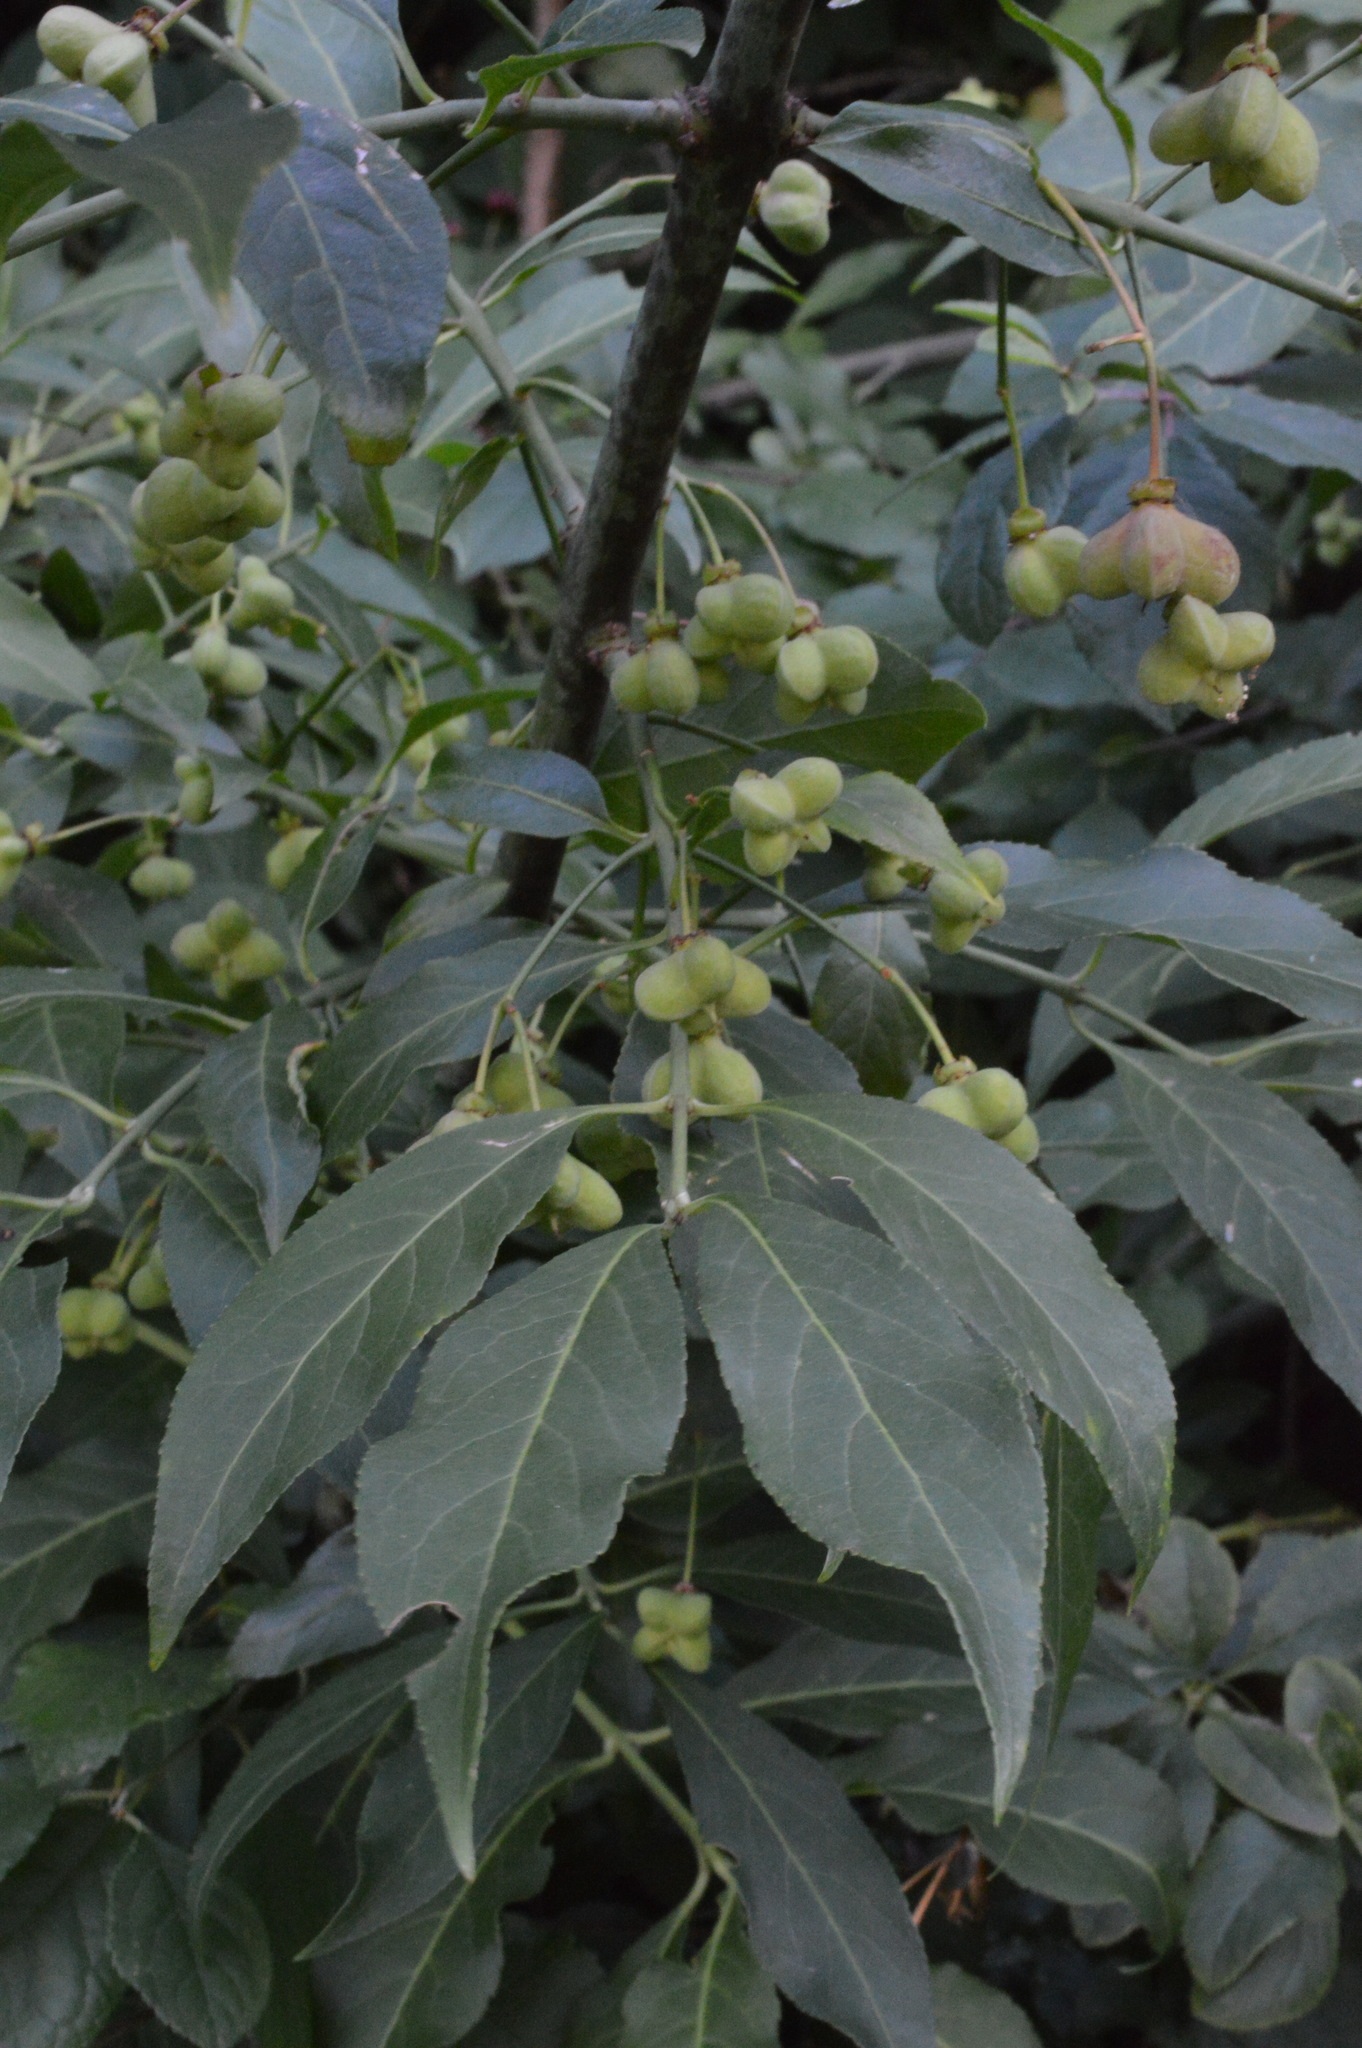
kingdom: Plantae
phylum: Tracheophyta
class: Magnoliopsida
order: Celastrales
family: Celastraceae
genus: Euonymus
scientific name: Euonymus europaeus
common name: Spindle
